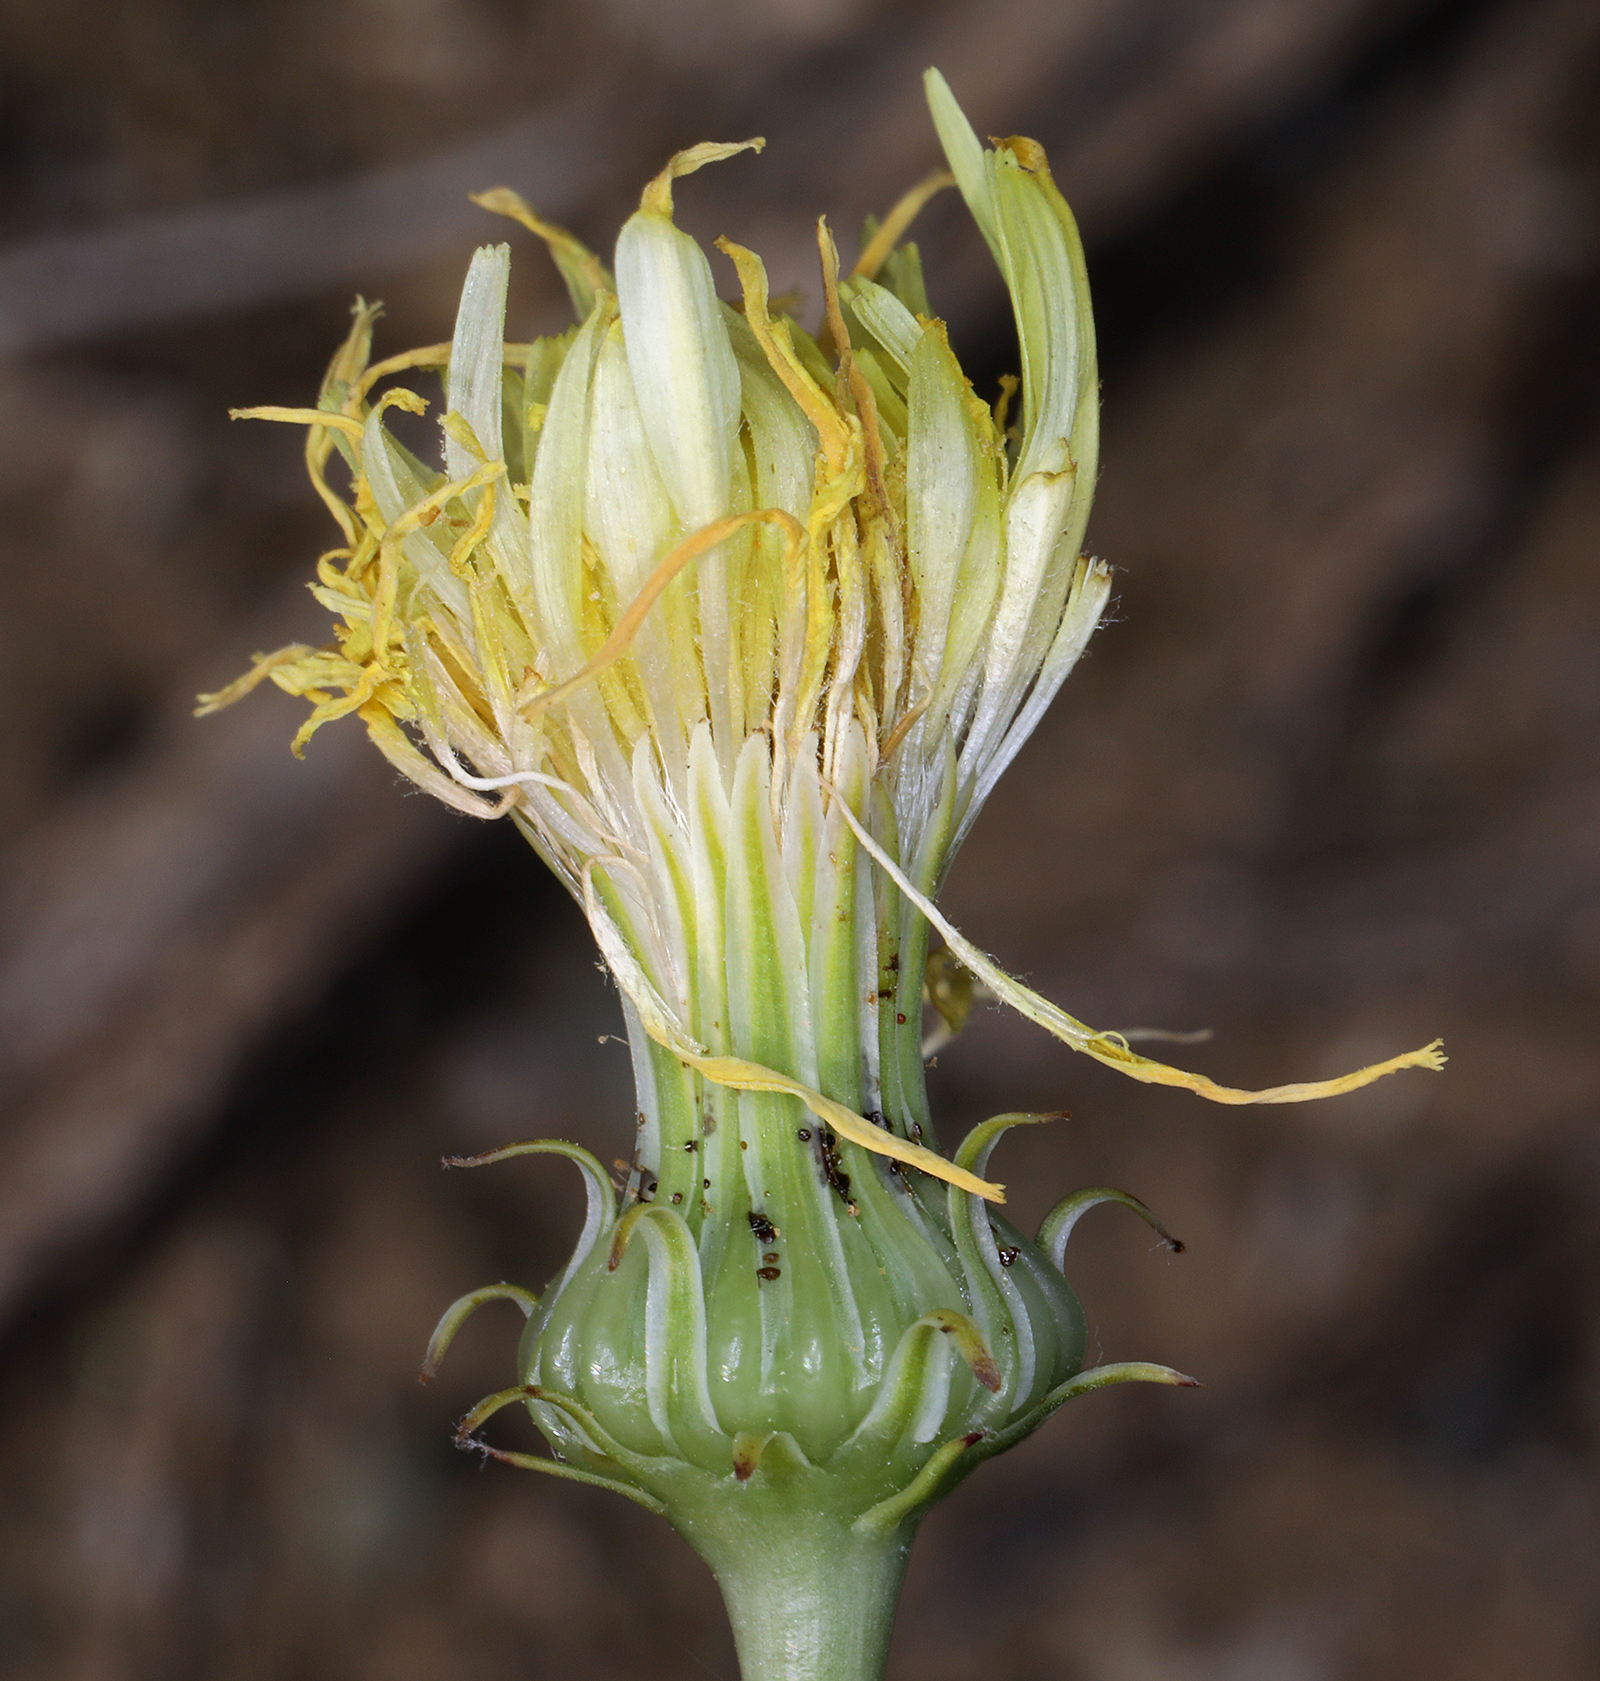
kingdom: Plantae
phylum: Tracheophyta
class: Magnoliopsida
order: Asterales
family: Asteraceae
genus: Malacothrix
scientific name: Malacothrix glabrata
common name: Smooth desert-dandelion
